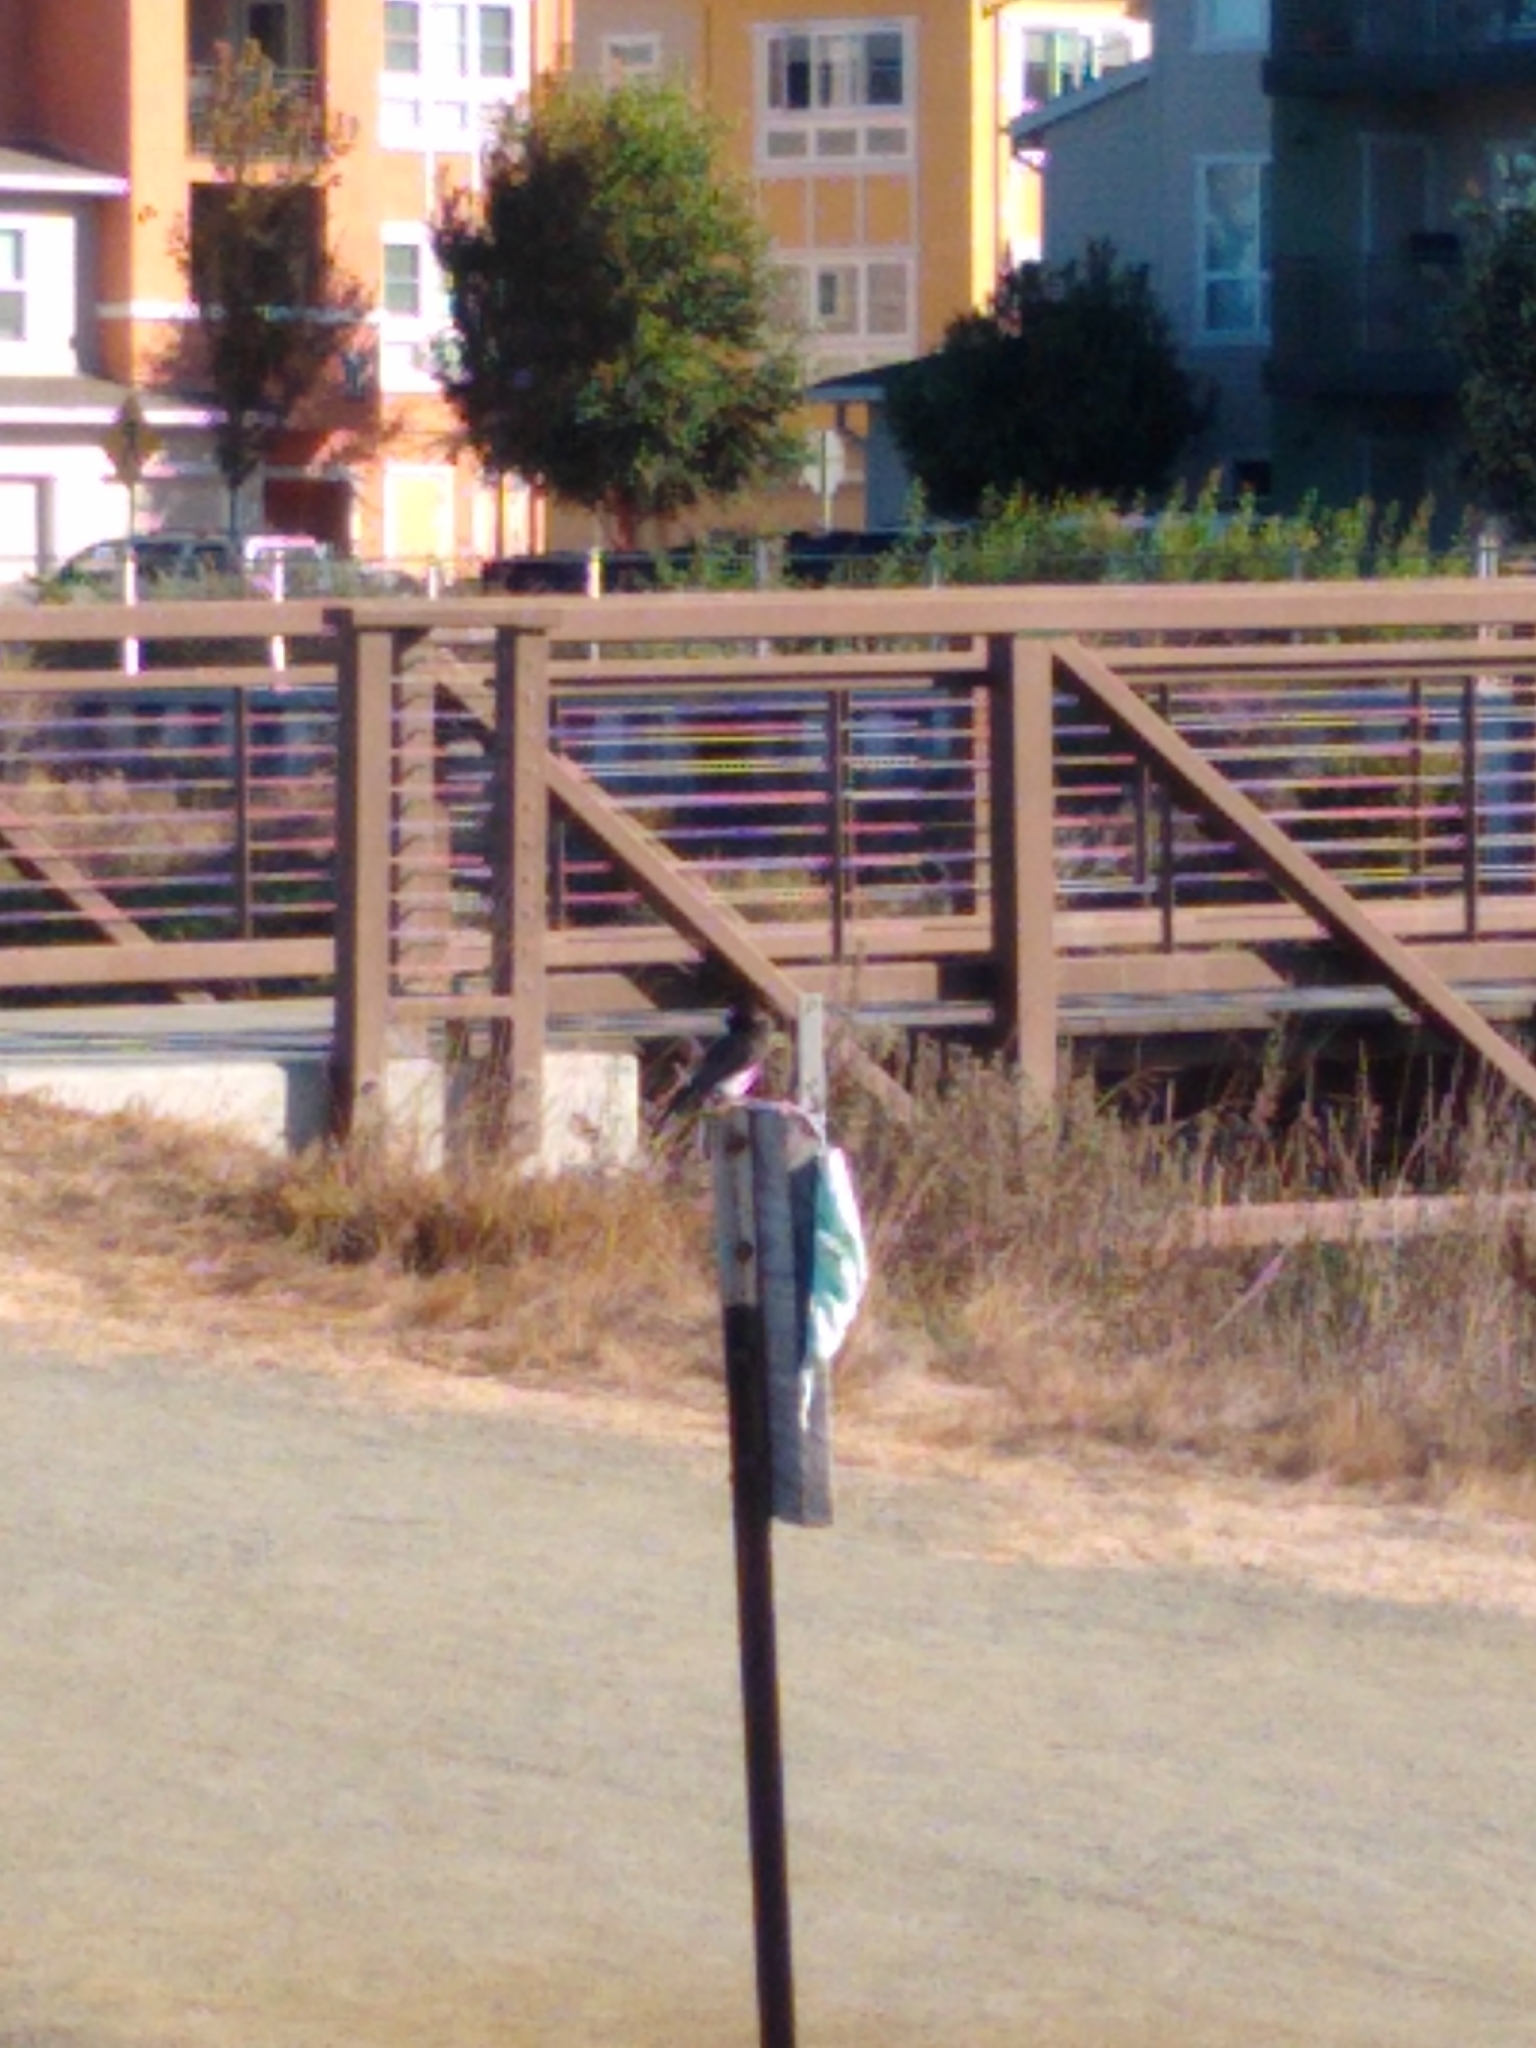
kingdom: Animalia
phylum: Chordata
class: Aves
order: Passeriformes
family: Tyrannidae
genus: Sayornis
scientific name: Sayornis nigricans
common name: Black phoebe
